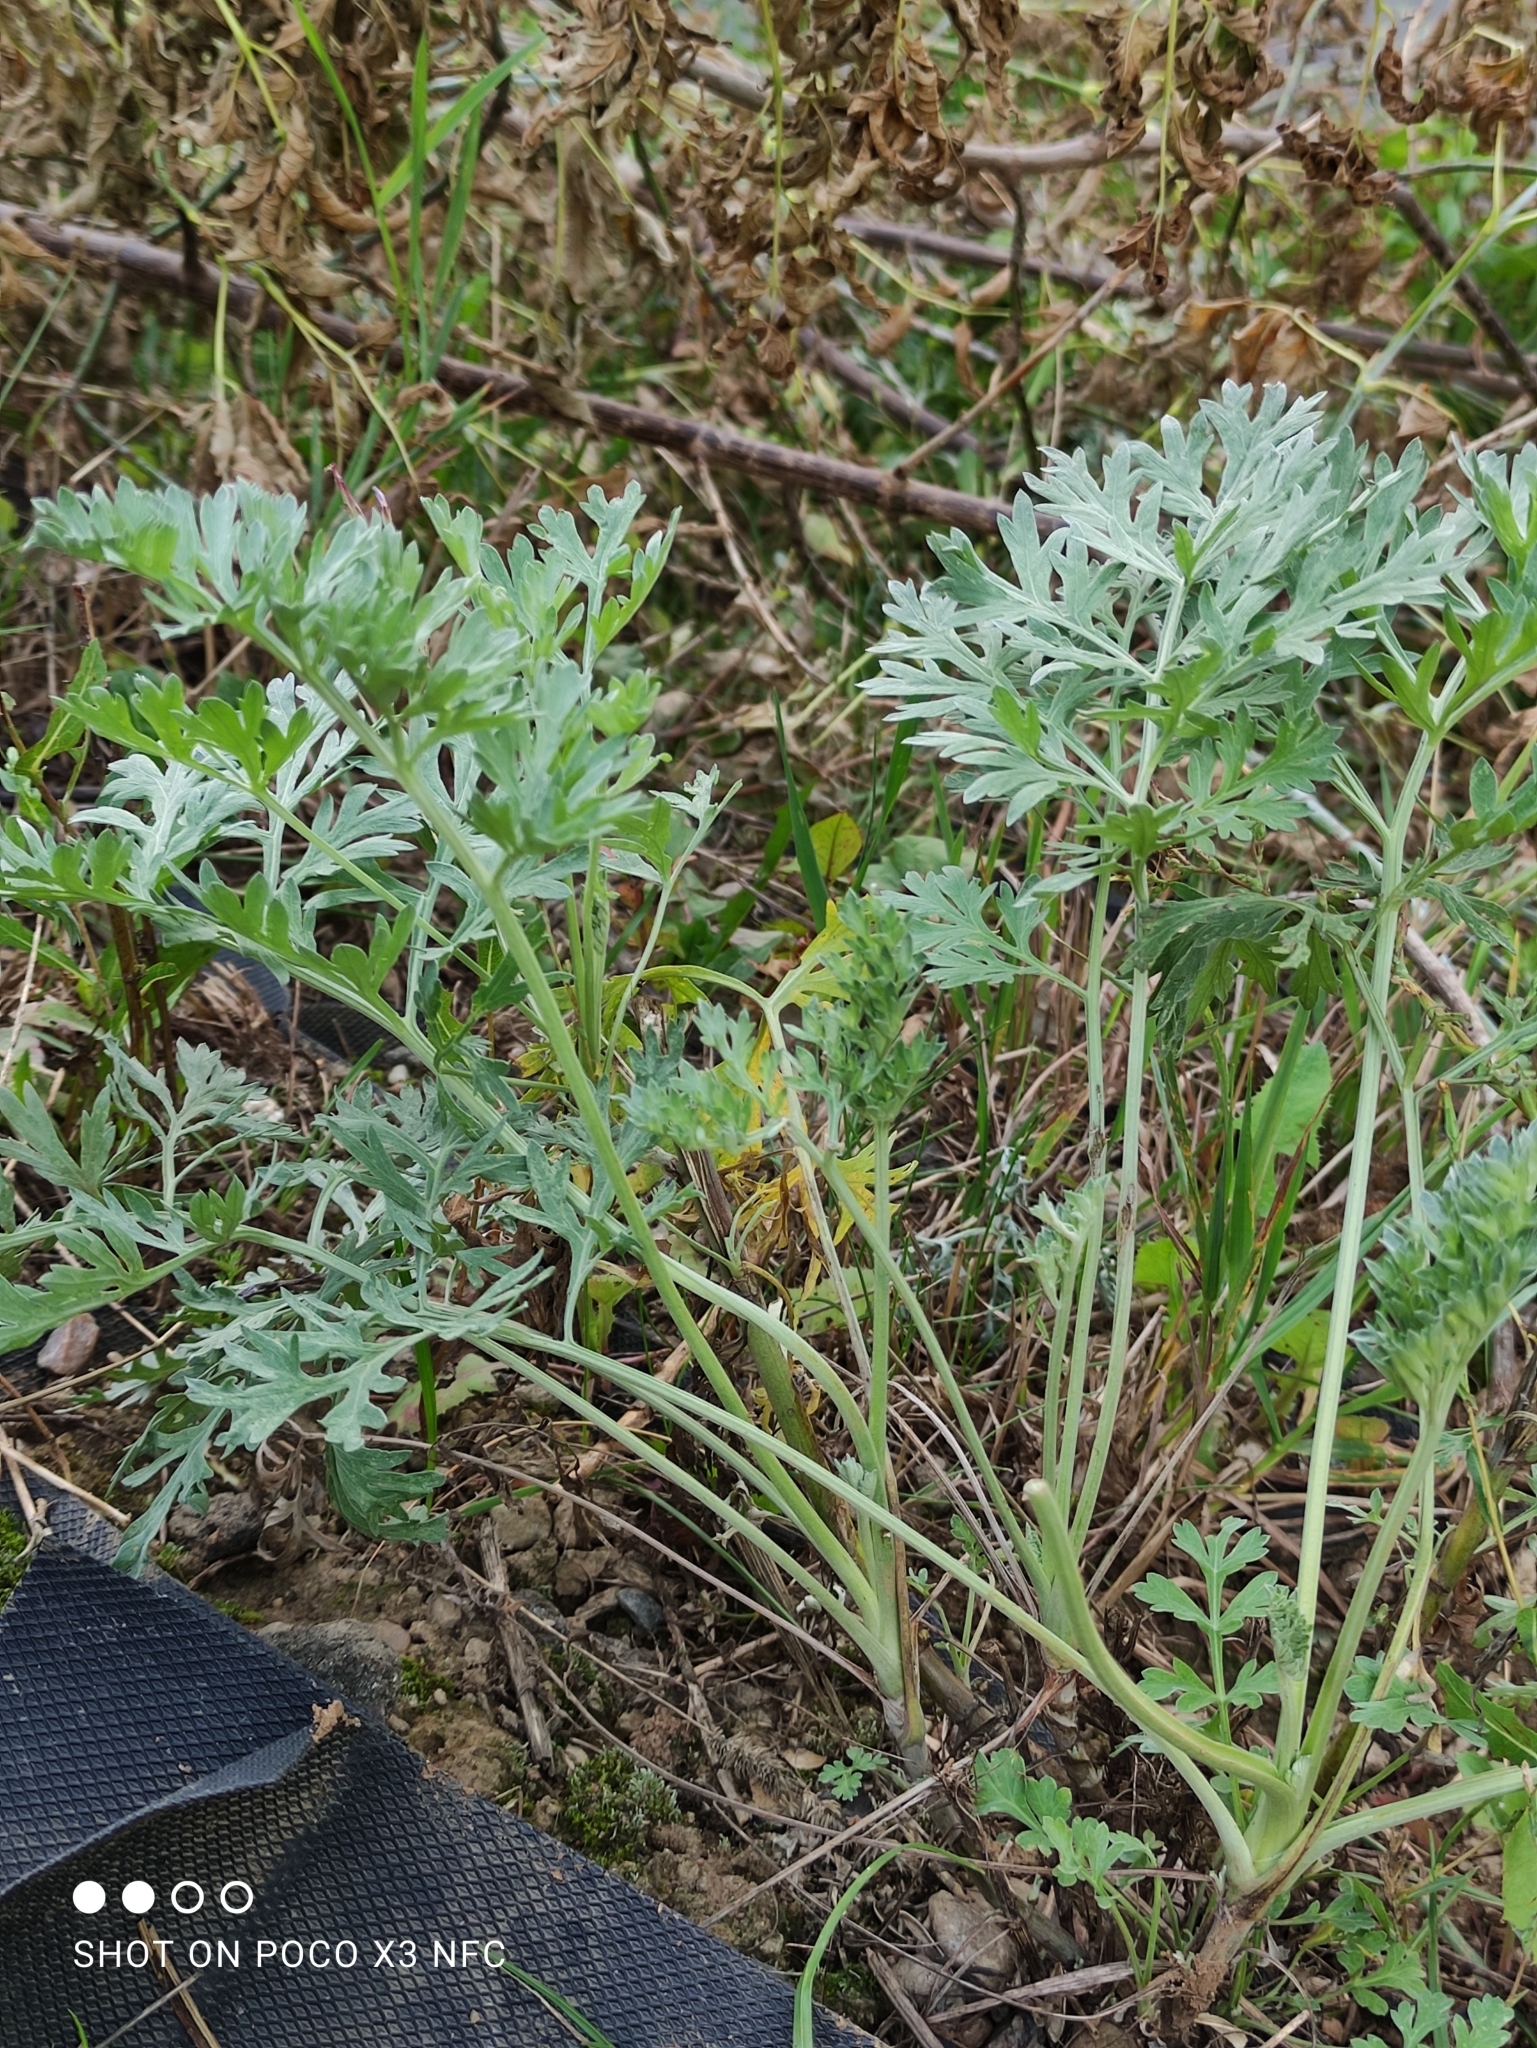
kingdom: Plantae
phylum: Tracheophyta
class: Magnoliopsida
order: Asterales
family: Asteraceae
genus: Artemisia
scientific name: Artemisia absinthium
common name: Wormwood
